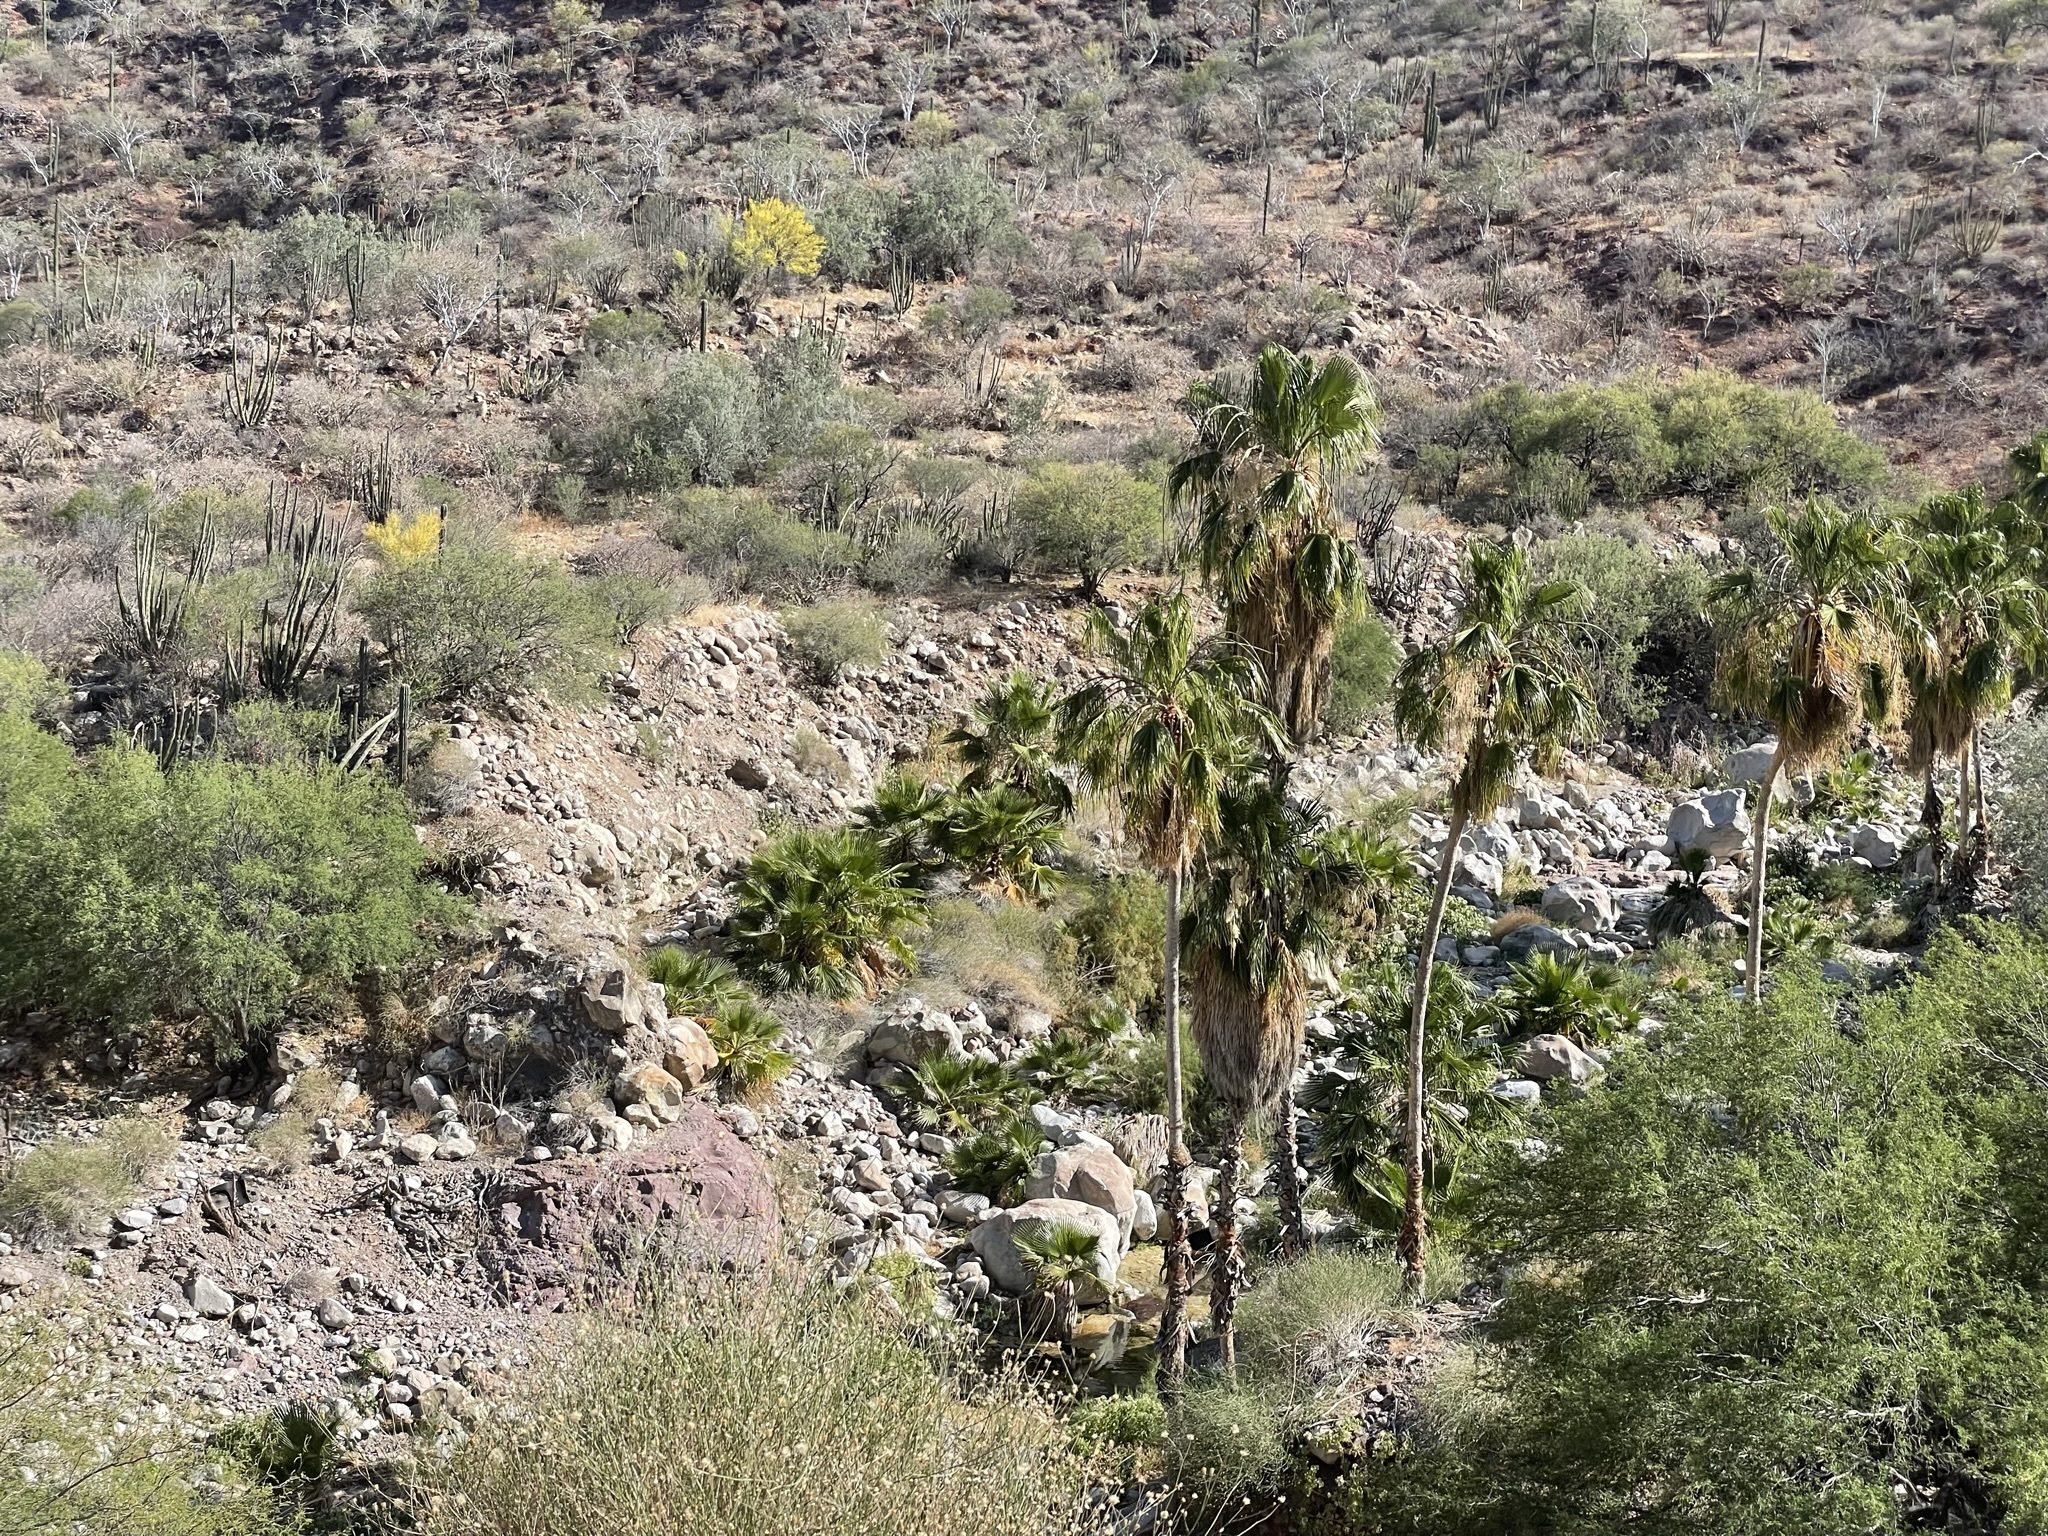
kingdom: Plantae
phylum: Tracheophyta
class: Liliopsida
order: Arecales
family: Arecaceae
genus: Washingtonia
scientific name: Washingtonia robusta
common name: Mexican fan palm
